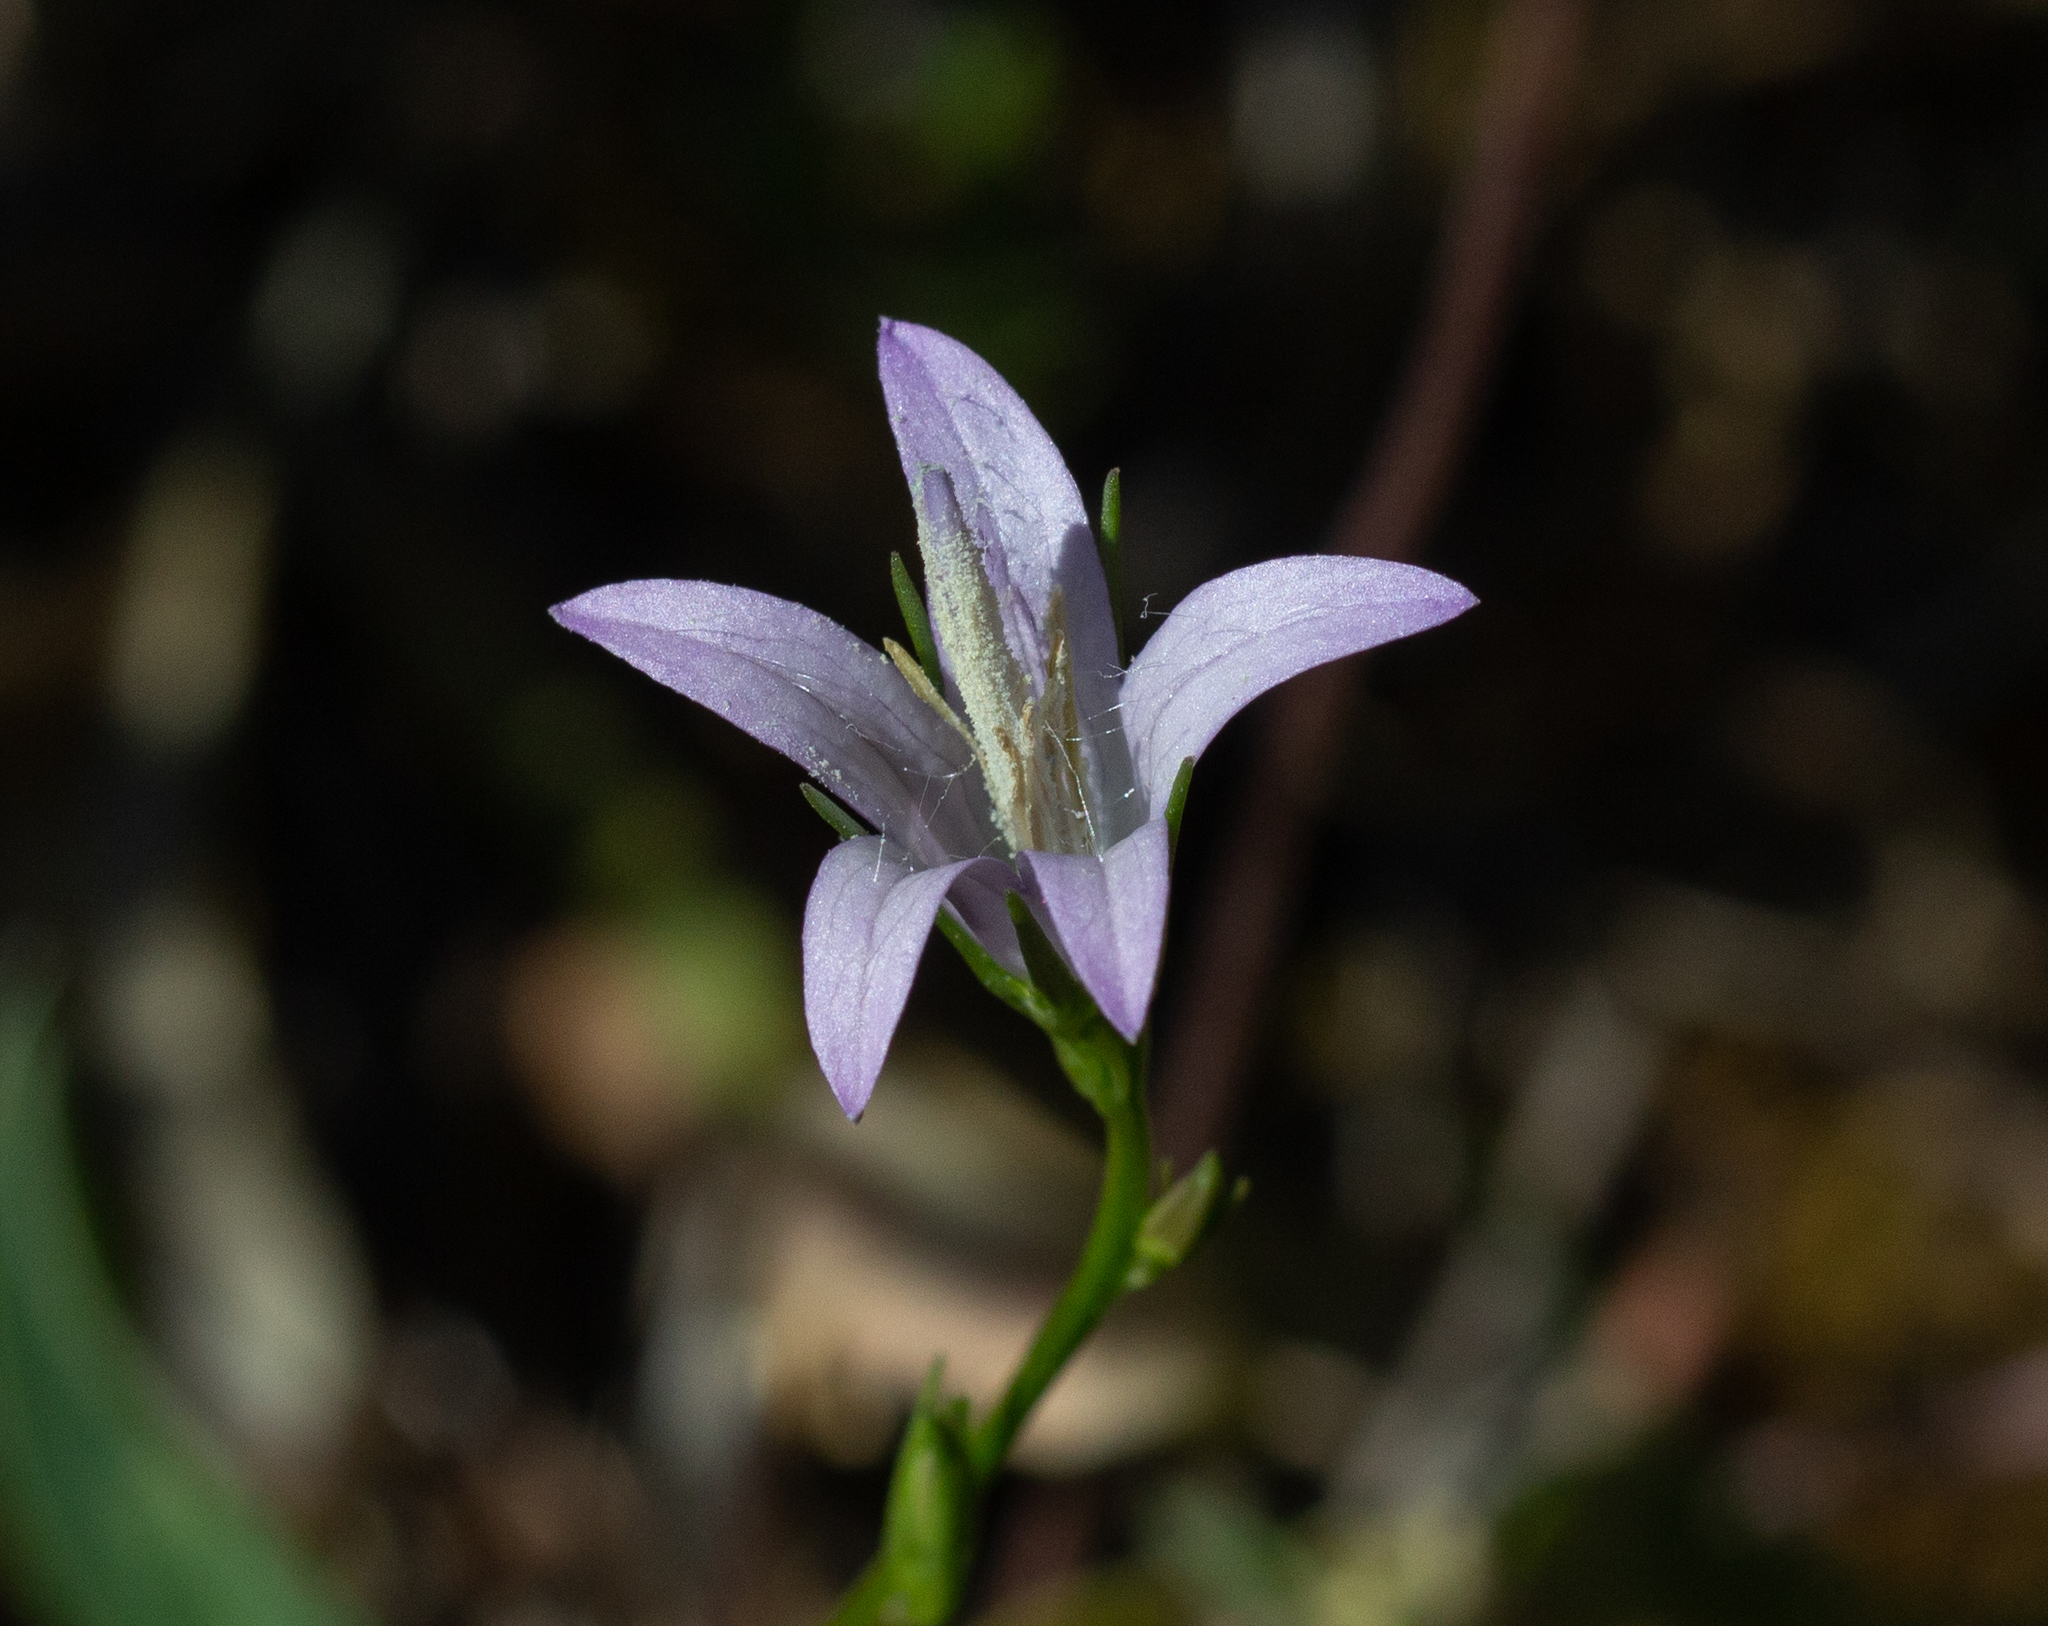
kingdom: Plantae
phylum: Tracheophyta
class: Magnoliopsida
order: Asterales
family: Campanulaceae
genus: Campanula
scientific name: Campanula rapunculus
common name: Rampion bellflower
